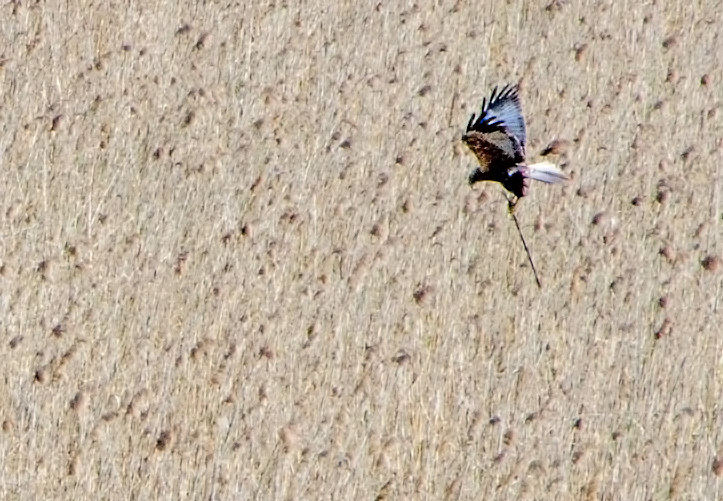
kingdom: Animalia
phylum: Chordata
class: Aves
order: Accipitriformes
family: Accipitridae
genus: Circus
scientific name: Circus aeruginosus
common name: Western marsh harrier
